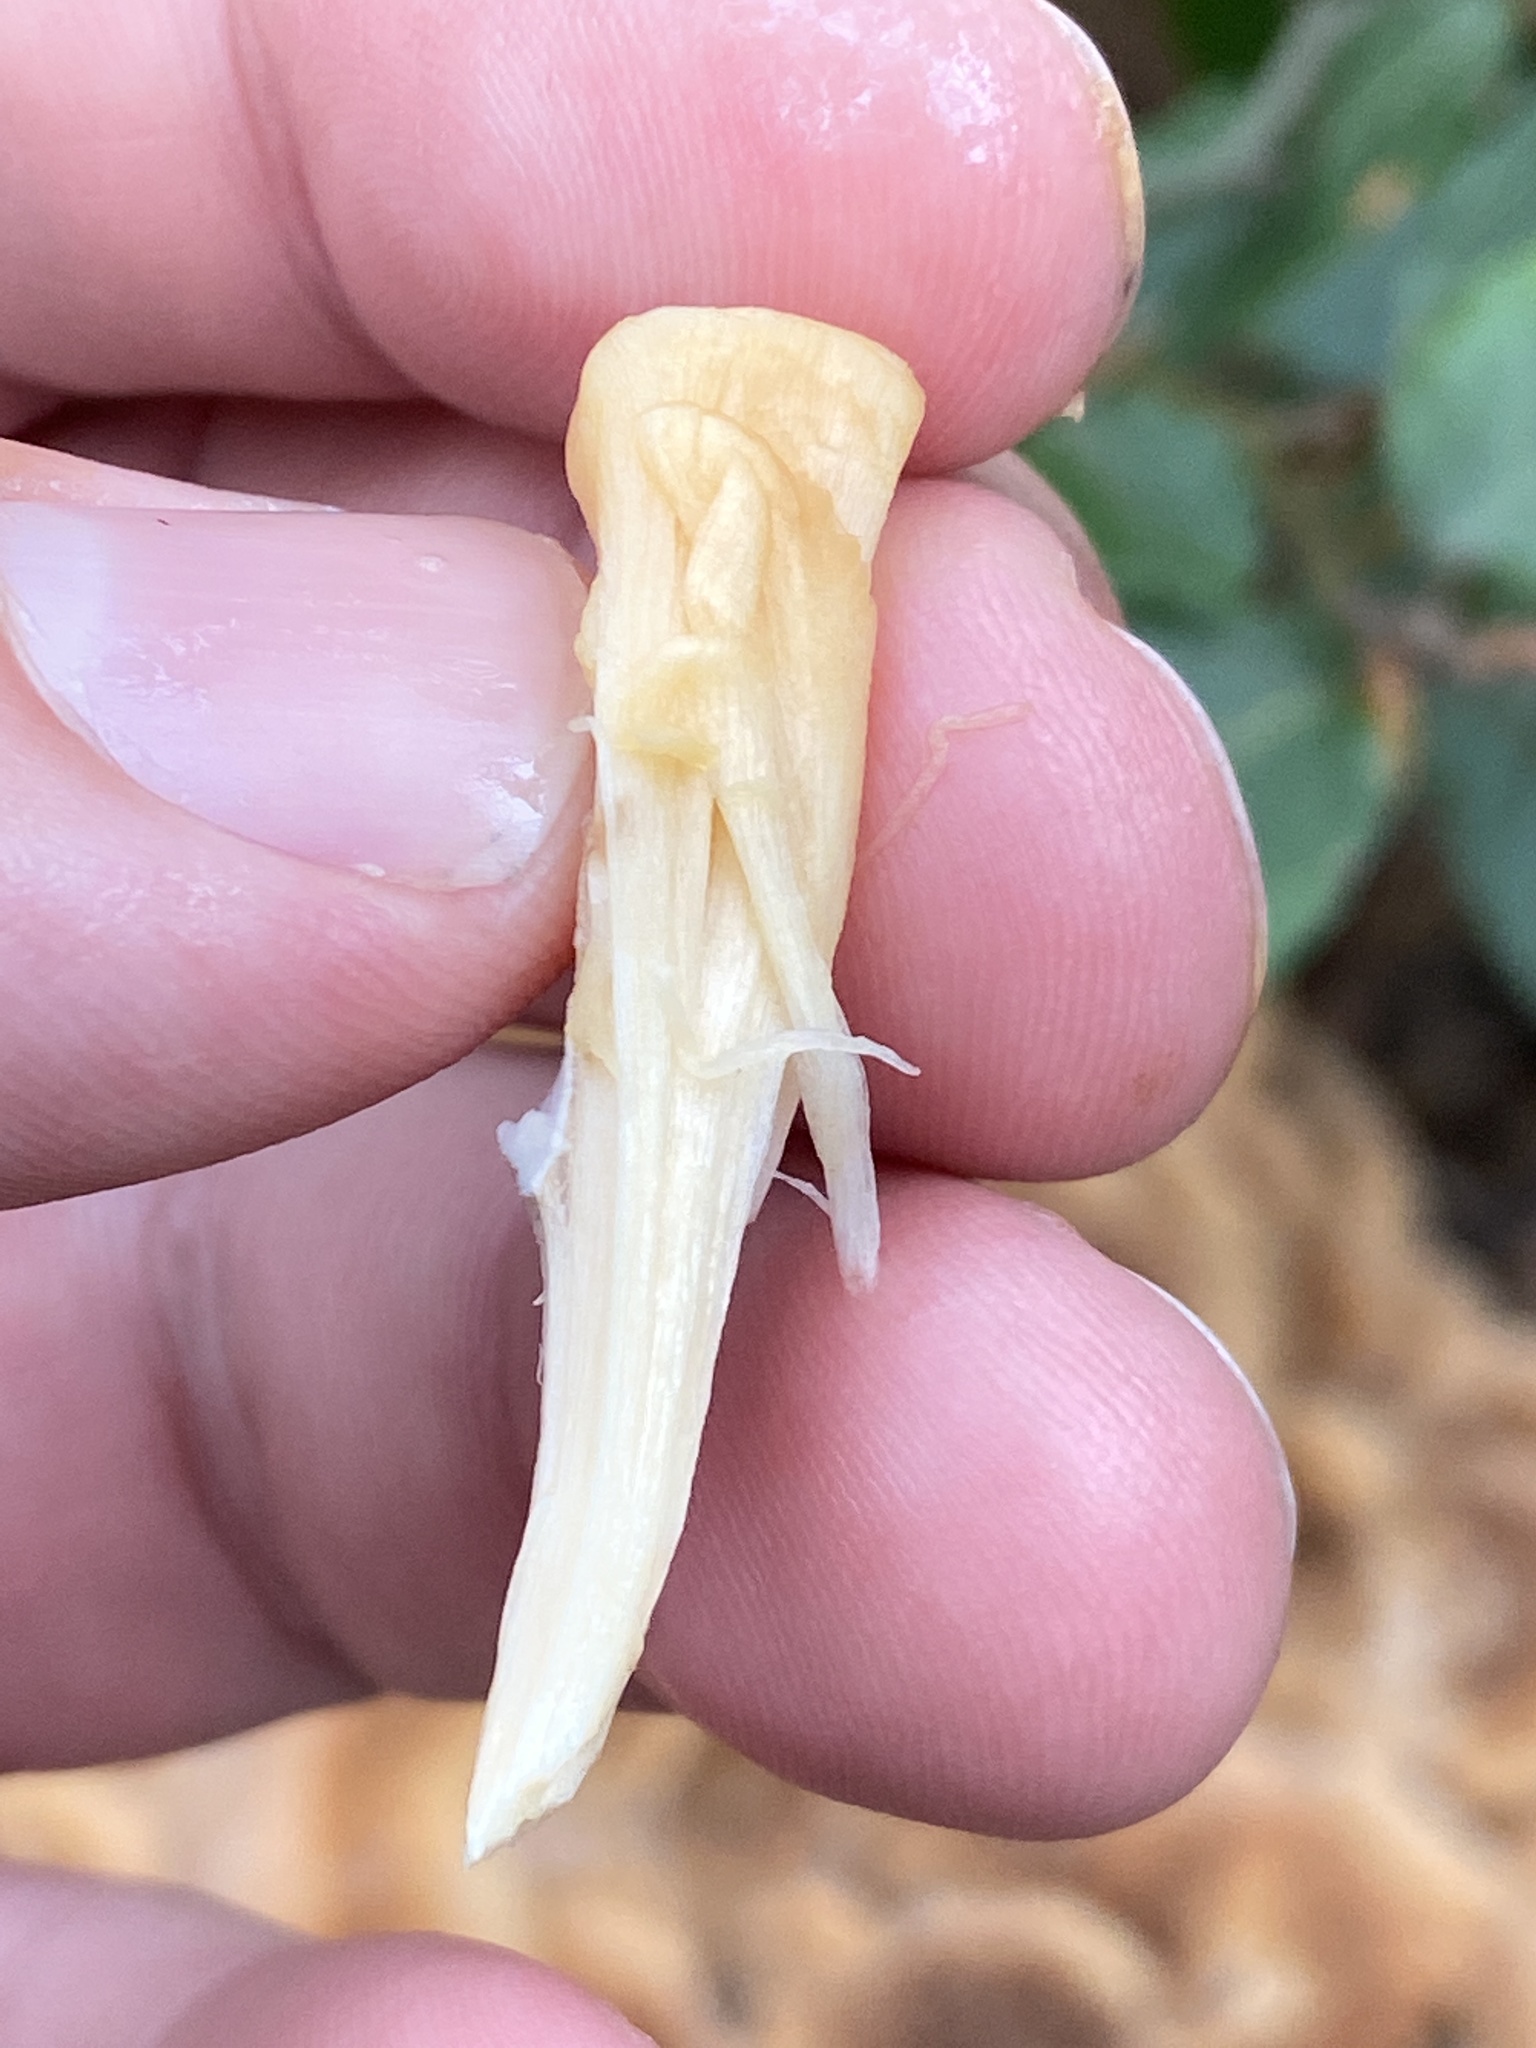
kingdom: Fungi
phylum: Basidiomycota
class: Agaricomycetes
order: Polyporales
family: Meripilaceae
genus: Meripilus
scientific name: Meripilus giganteus
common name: Giant polypore
